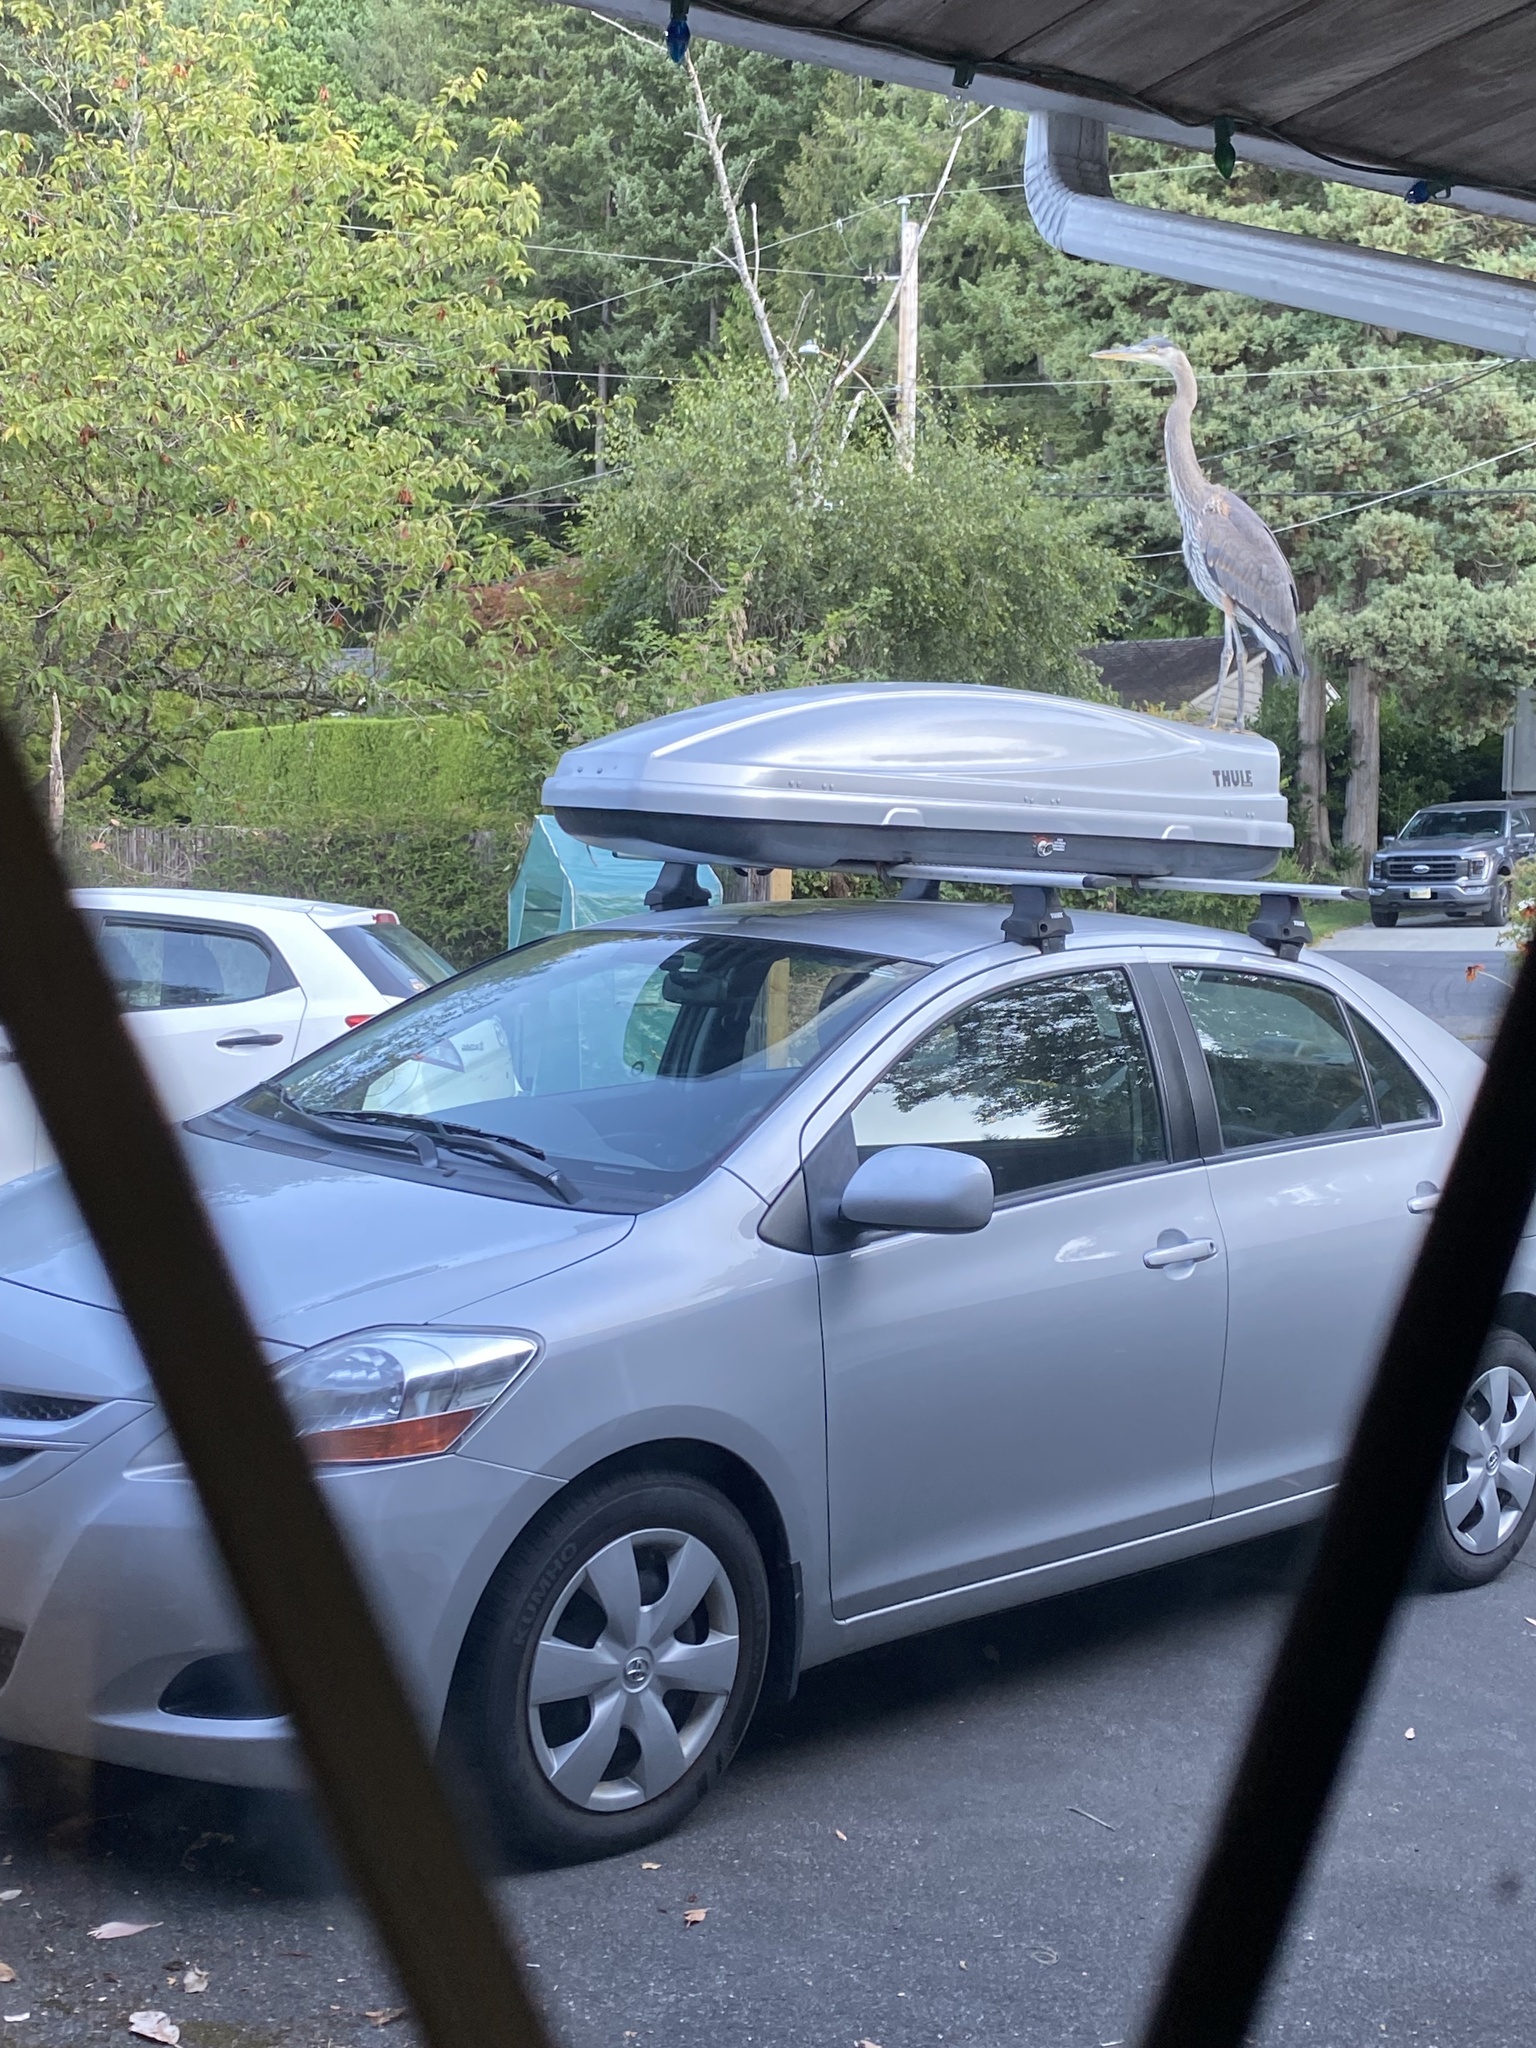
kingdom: Animalia
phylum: Chordata
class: Aves
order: Pelecaniformes
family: Ardeidae
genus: Ardea
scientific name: Ardea herodias
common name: Great blue heron
